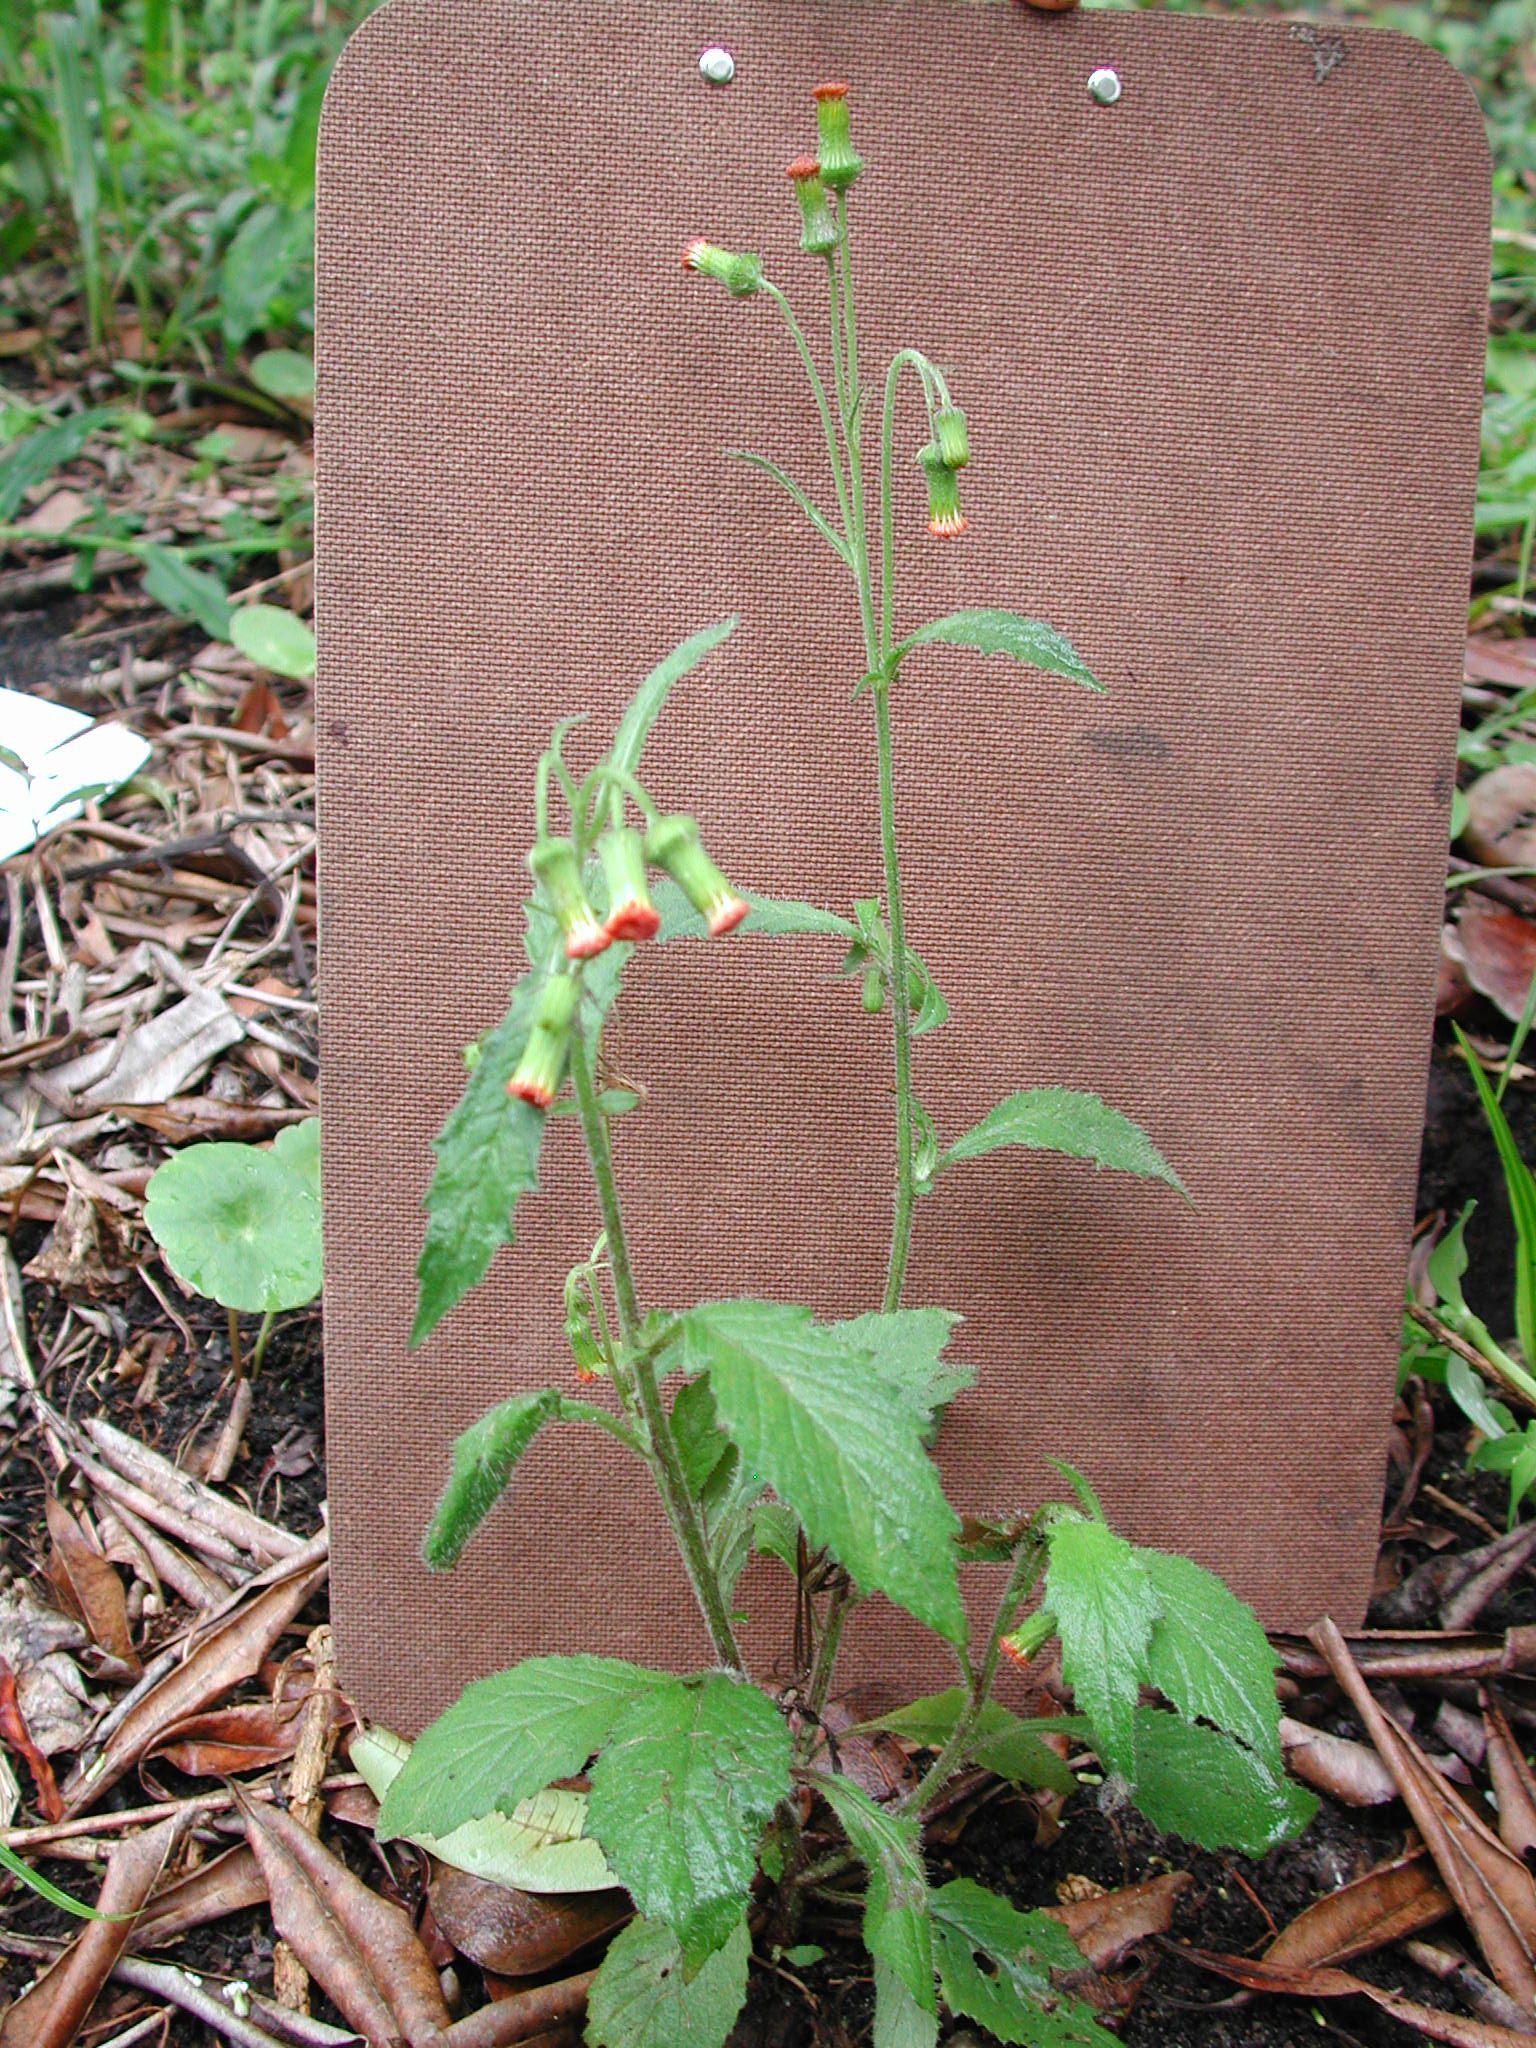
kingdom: Plantae
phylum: Tracheophyta
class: Magnoliopsida
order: Asterales
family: Asteraceae
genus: Crassocephalum
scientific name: Crassocephalum crepidioides
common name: Redflower ragleaf
